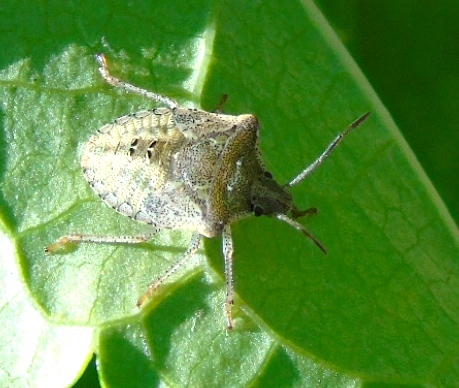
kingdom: Animalia
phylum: Arthropoda
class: Insecta
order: Hemiptera
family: Pentatomidae
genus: Euschistus
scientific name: Euschistus
